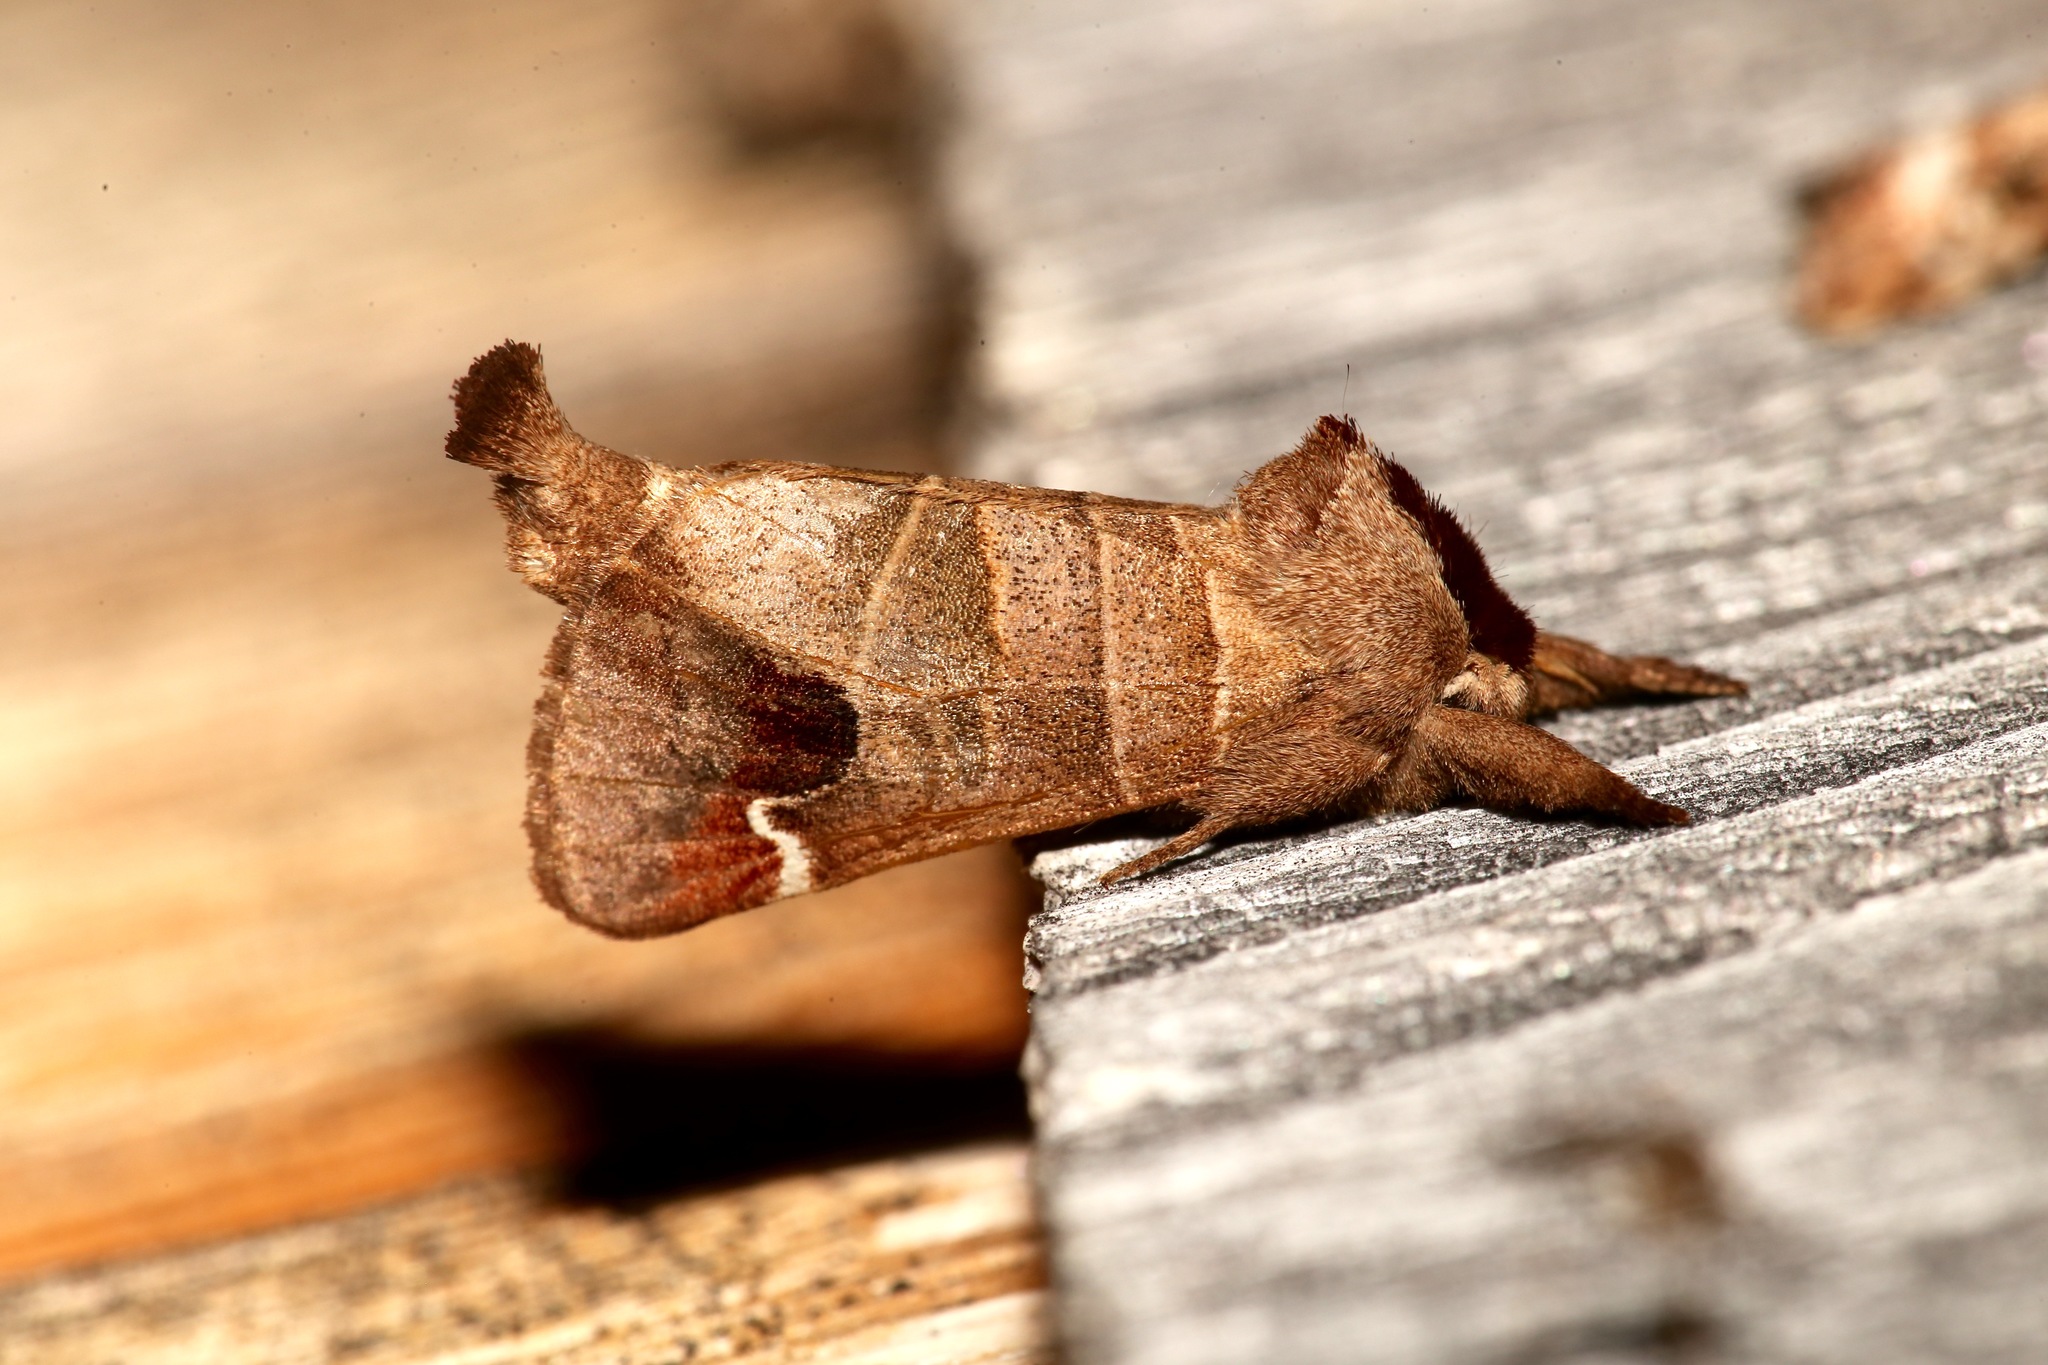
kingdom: Animalia
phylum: Arthropoda
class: Insecta
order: Lepidoptera
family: Notodontidae
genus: Clostera
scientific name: Clostera albosigma
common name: Sigmoid prominent
